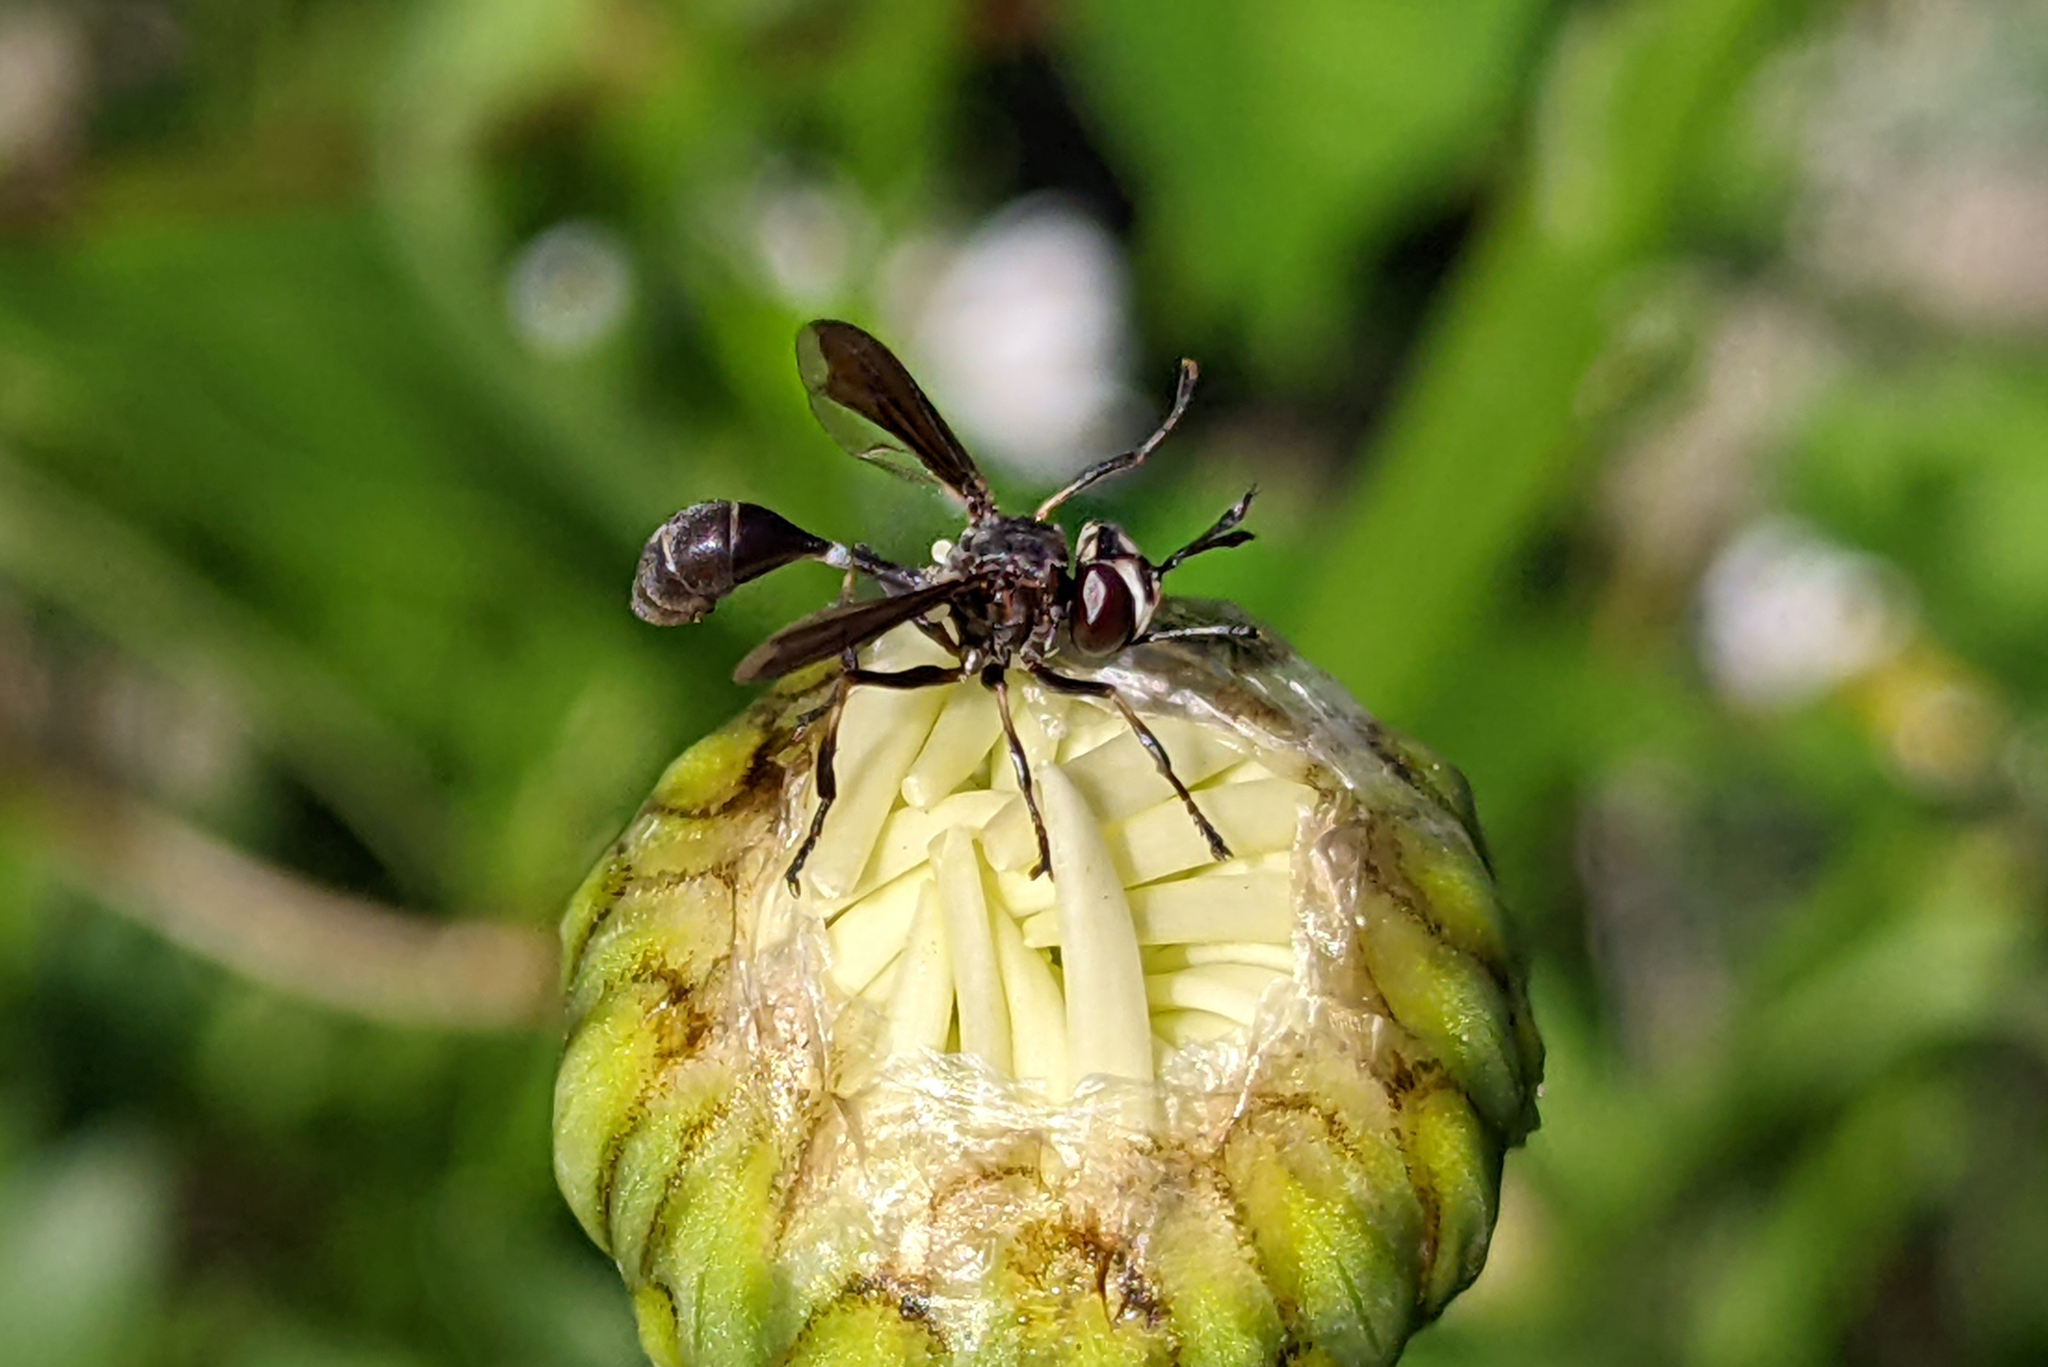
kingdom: Animalia
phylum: Arthropoda
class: Insecta
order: Diptera
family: Conopidae
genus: Physocephala
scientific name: Physocephala tibialis
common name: Common eastern physocephala
